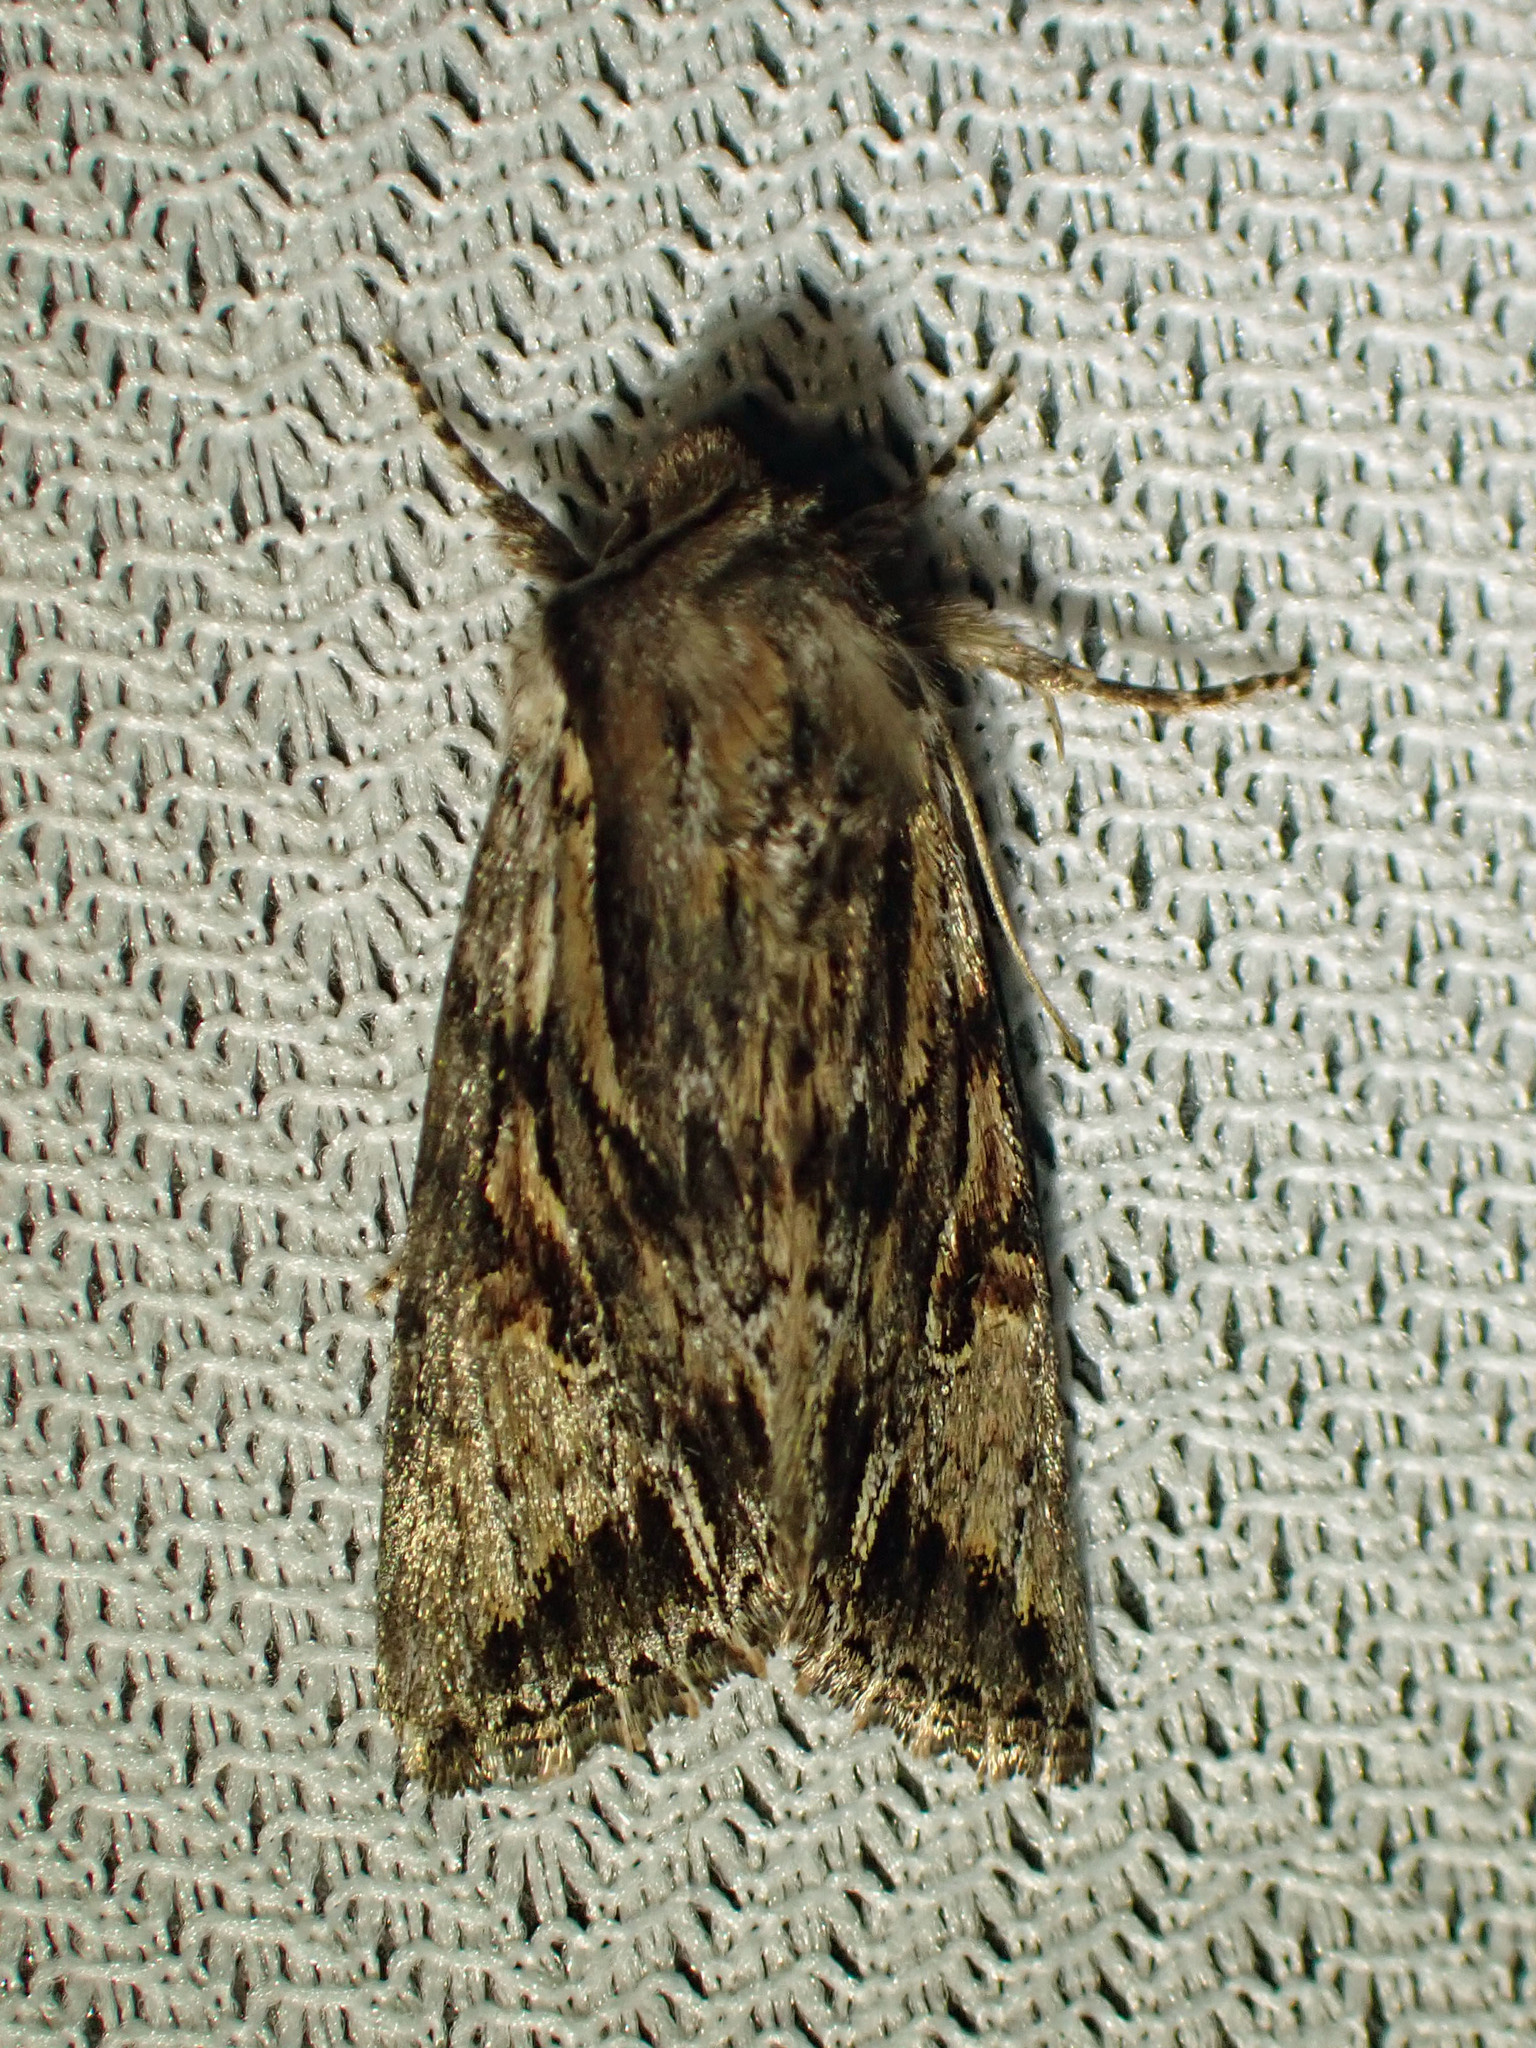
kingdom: Animalia
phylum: Arthropoda
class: Insecta
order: Lepidoptera
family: Noctuidae
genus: Achatia
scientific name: Achatia evicta
